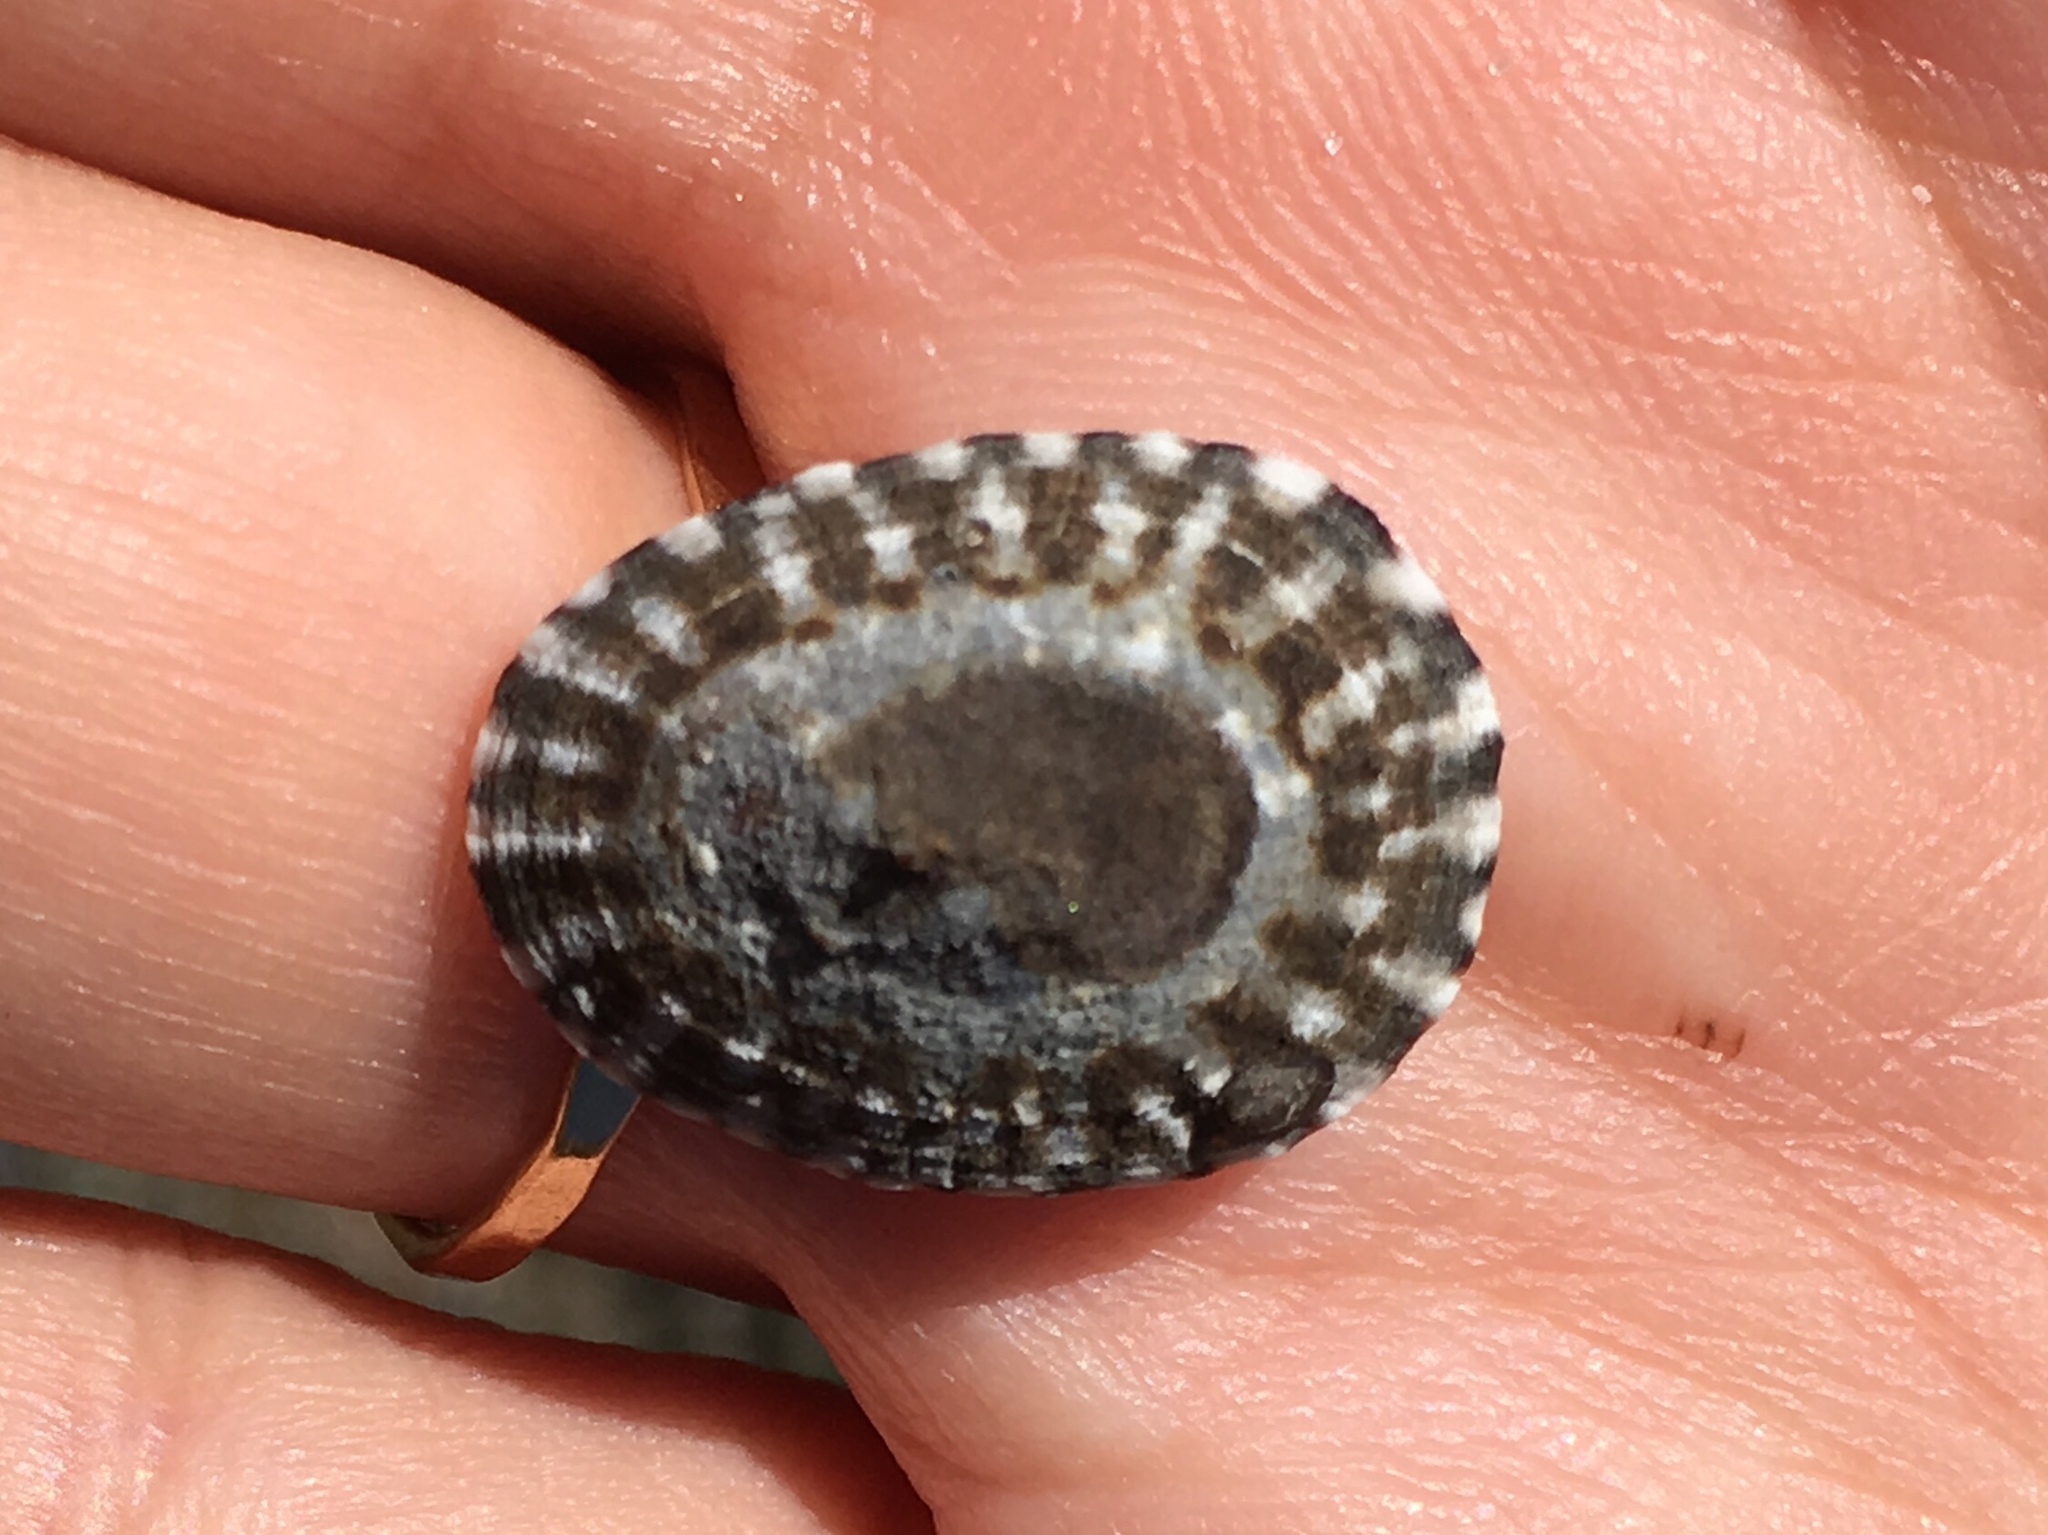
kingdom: Animalia
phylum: Mollusca
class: Gastropoda
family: Lottiidae
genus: Lottia
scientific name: Lottia scutum
